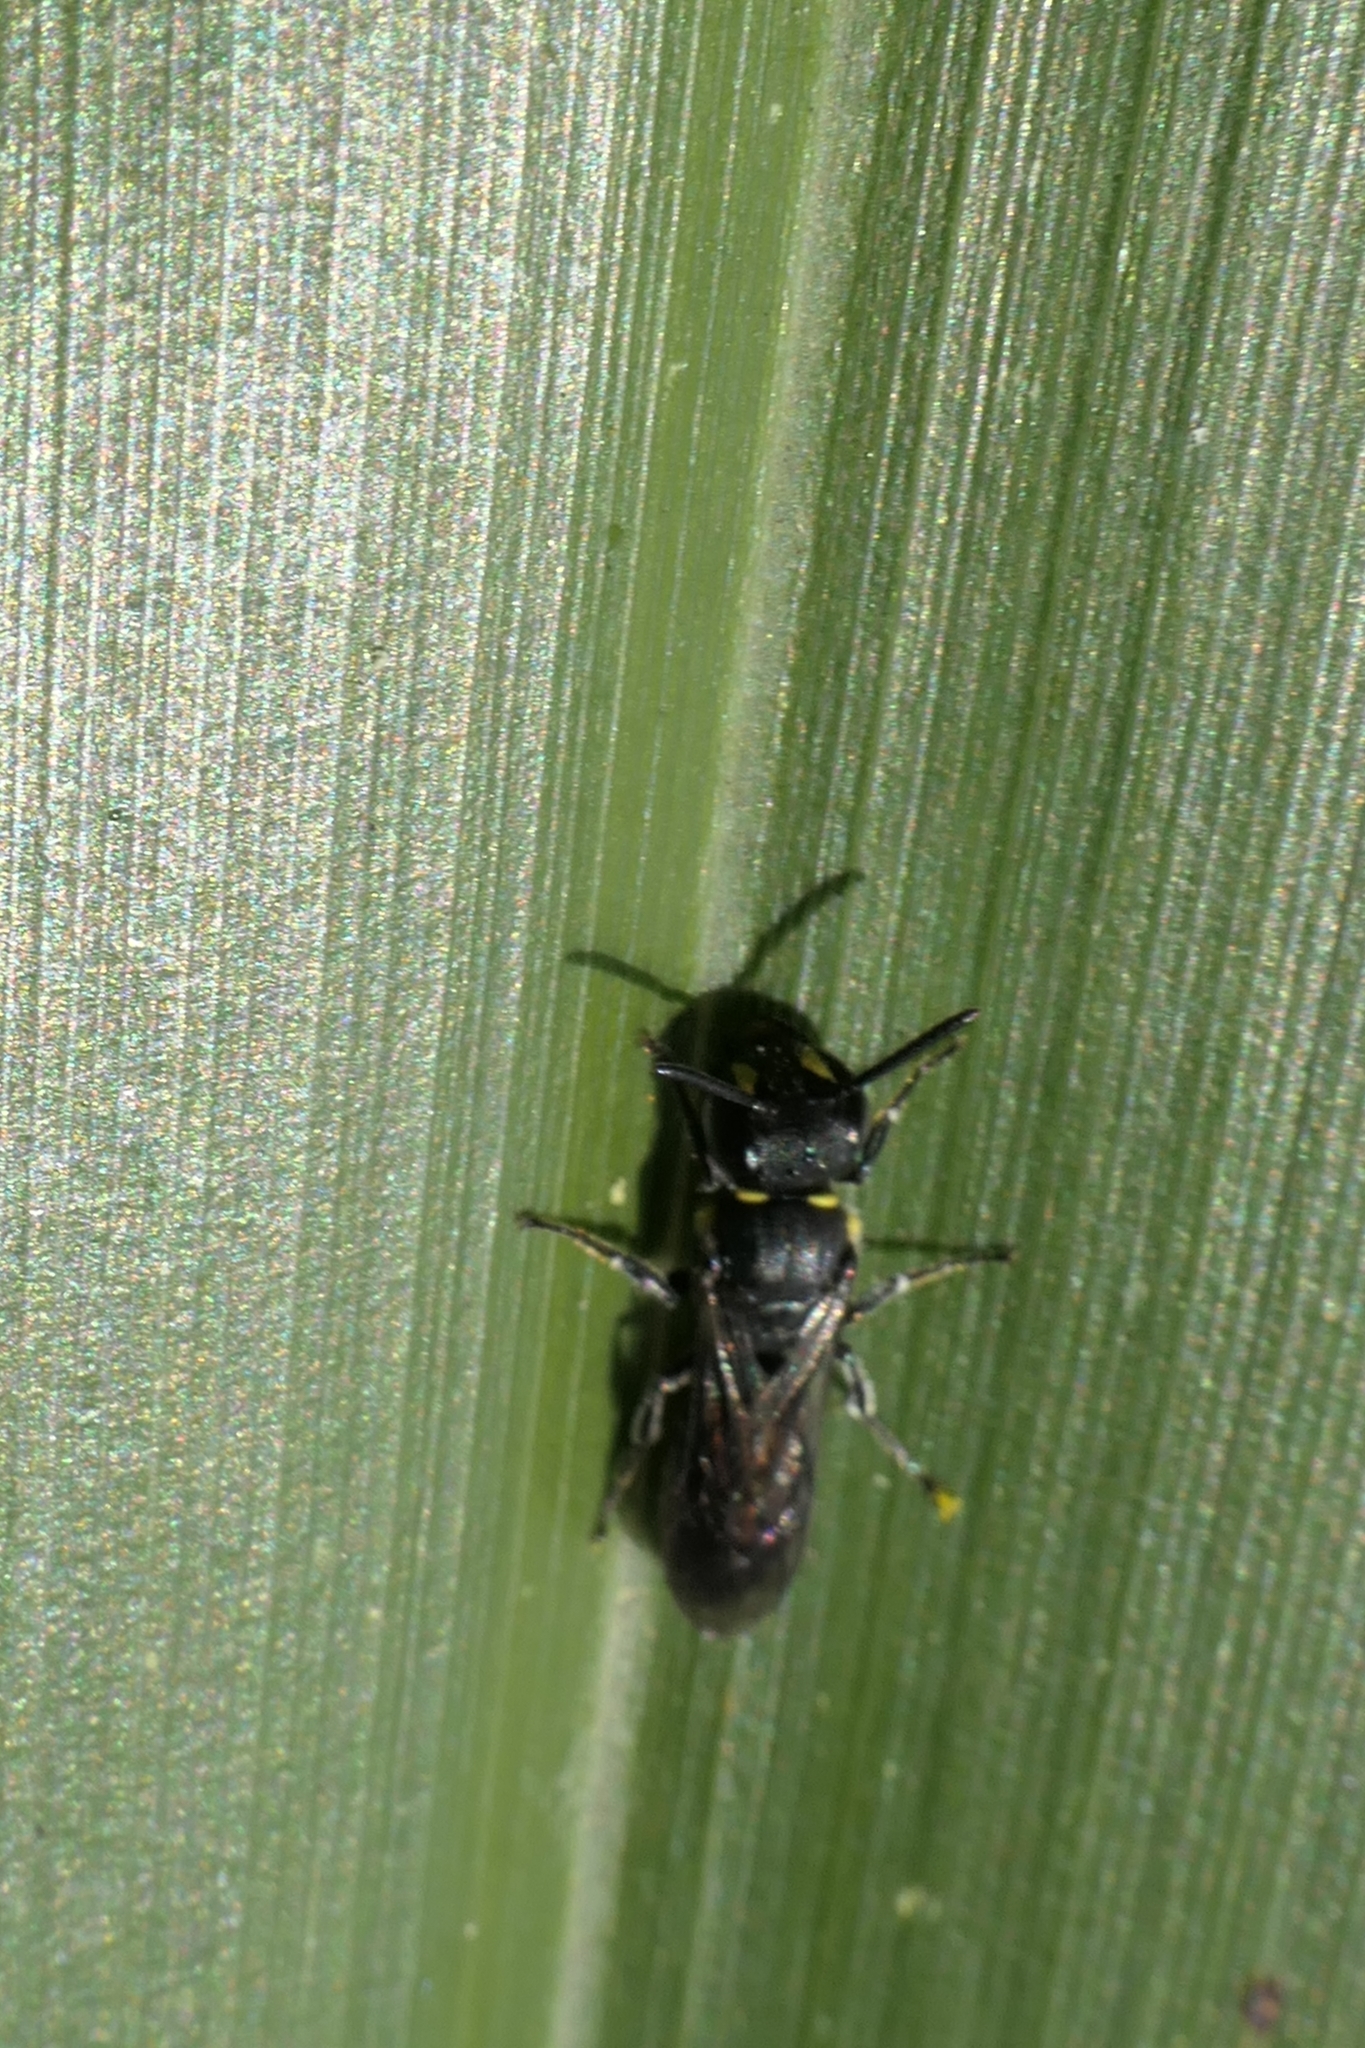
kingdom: Animalia
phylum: Arthropoda
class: Insecta
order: Hymenoptera
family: Colletidae
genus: Hylaeus
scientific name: Hylaeus relegatus
